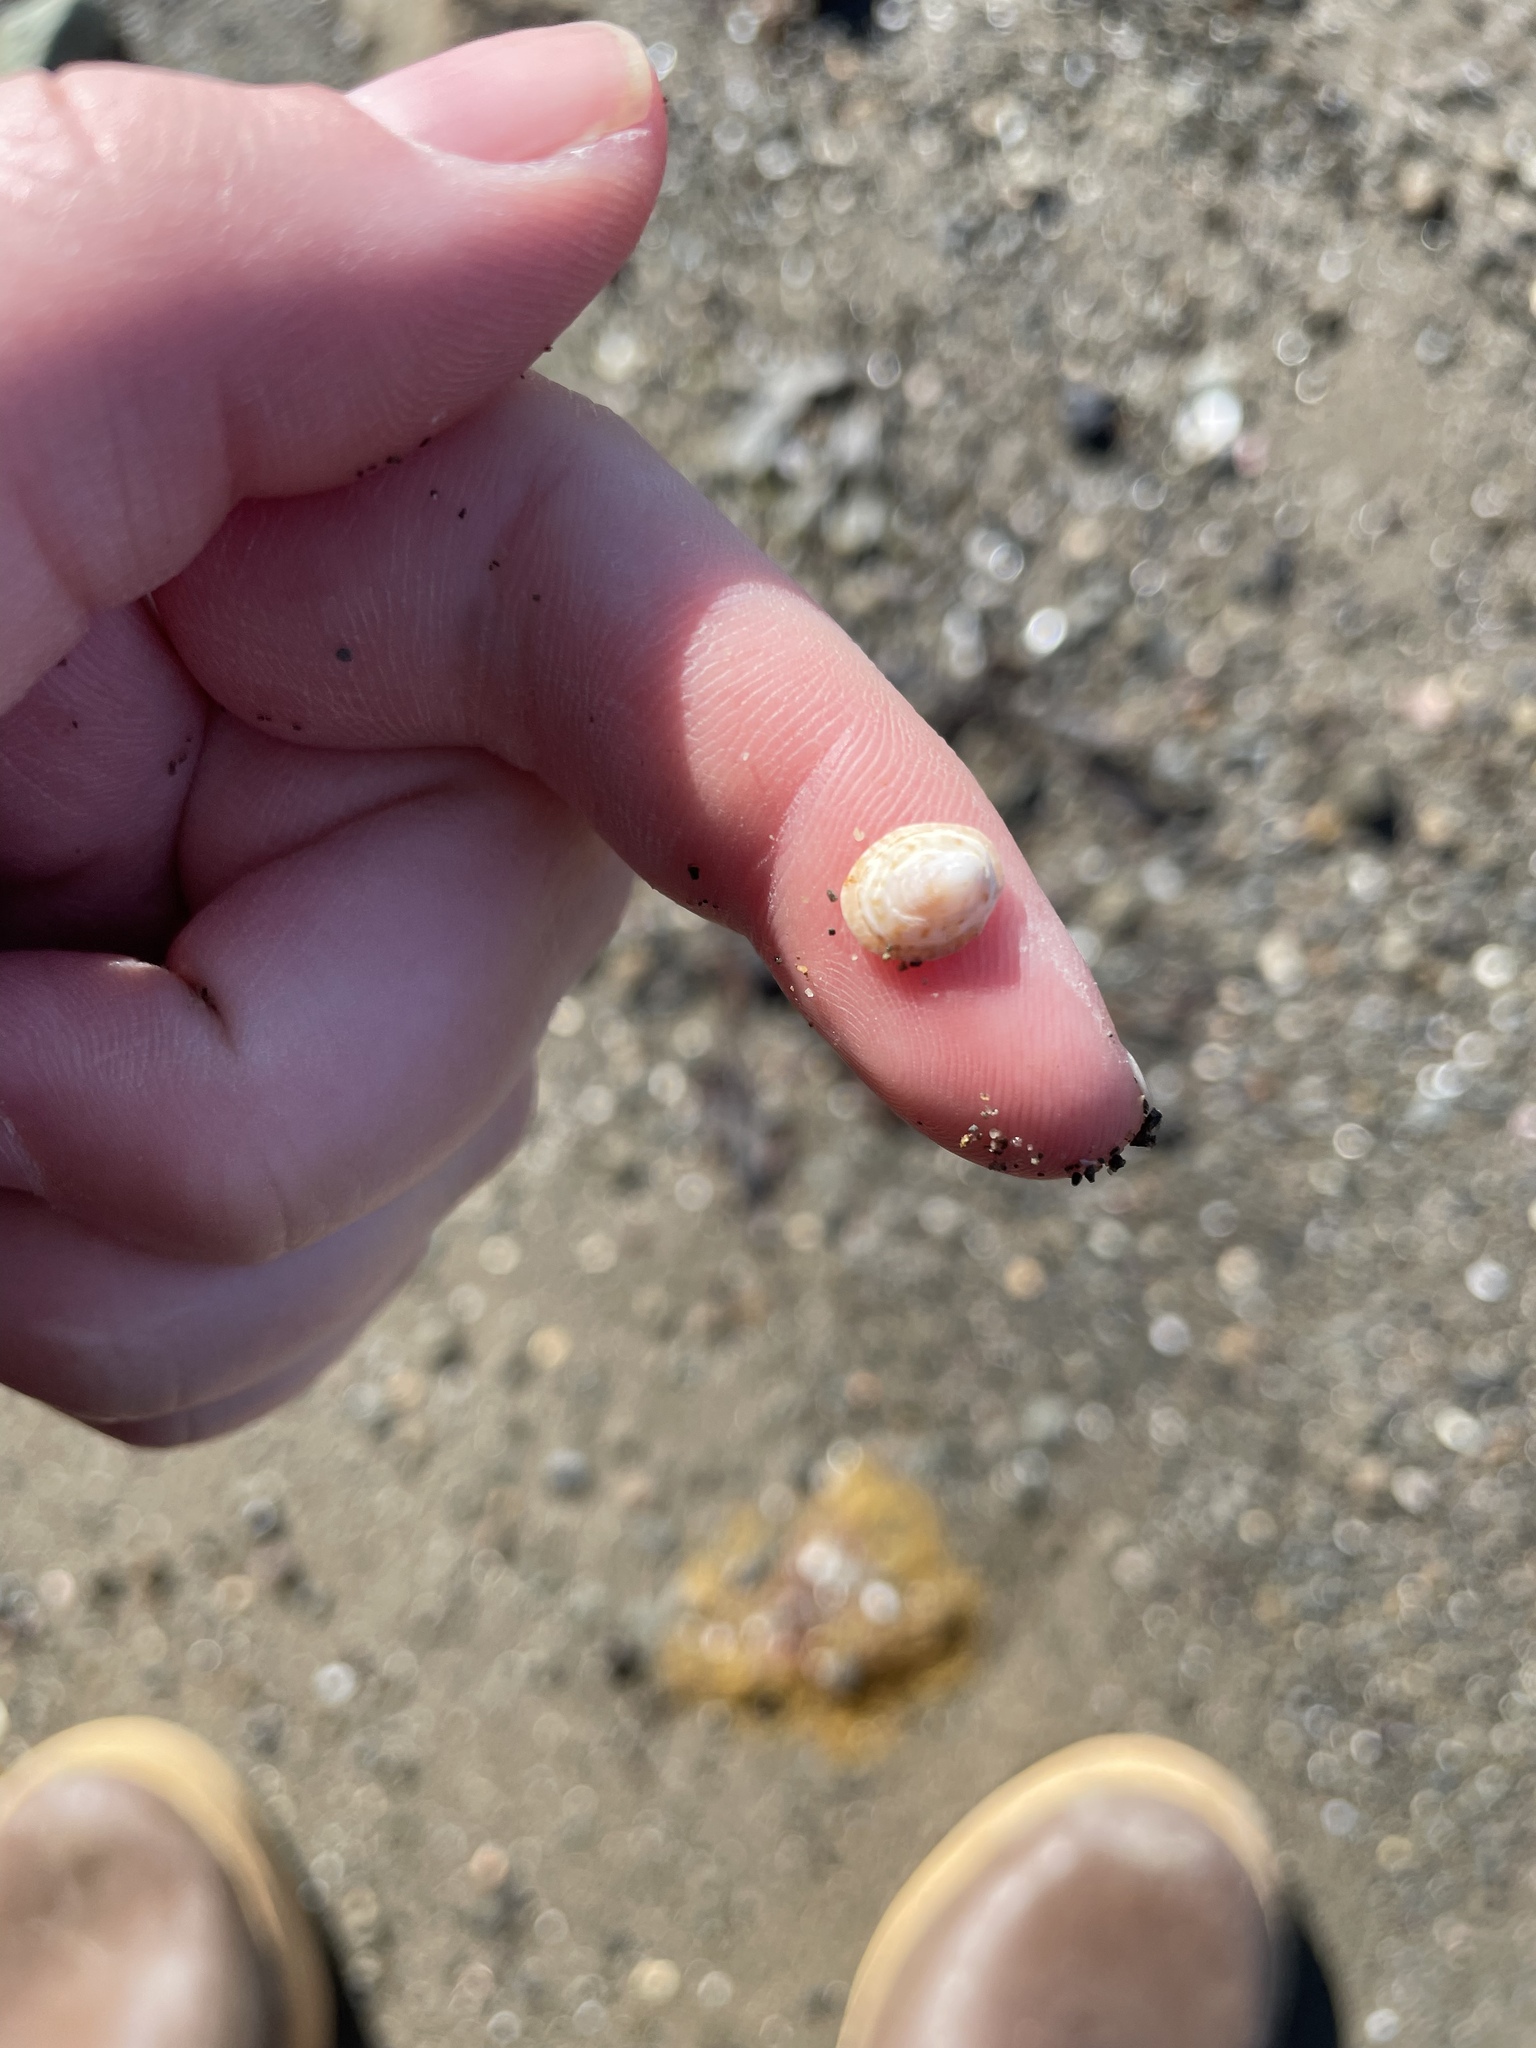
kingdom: Animalia
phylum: Mollusca
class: Gastropoda
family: Lottiidae
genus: Testudinalia
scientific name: Testudinalia testudinalis
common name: Common tortoiseshell limpet
